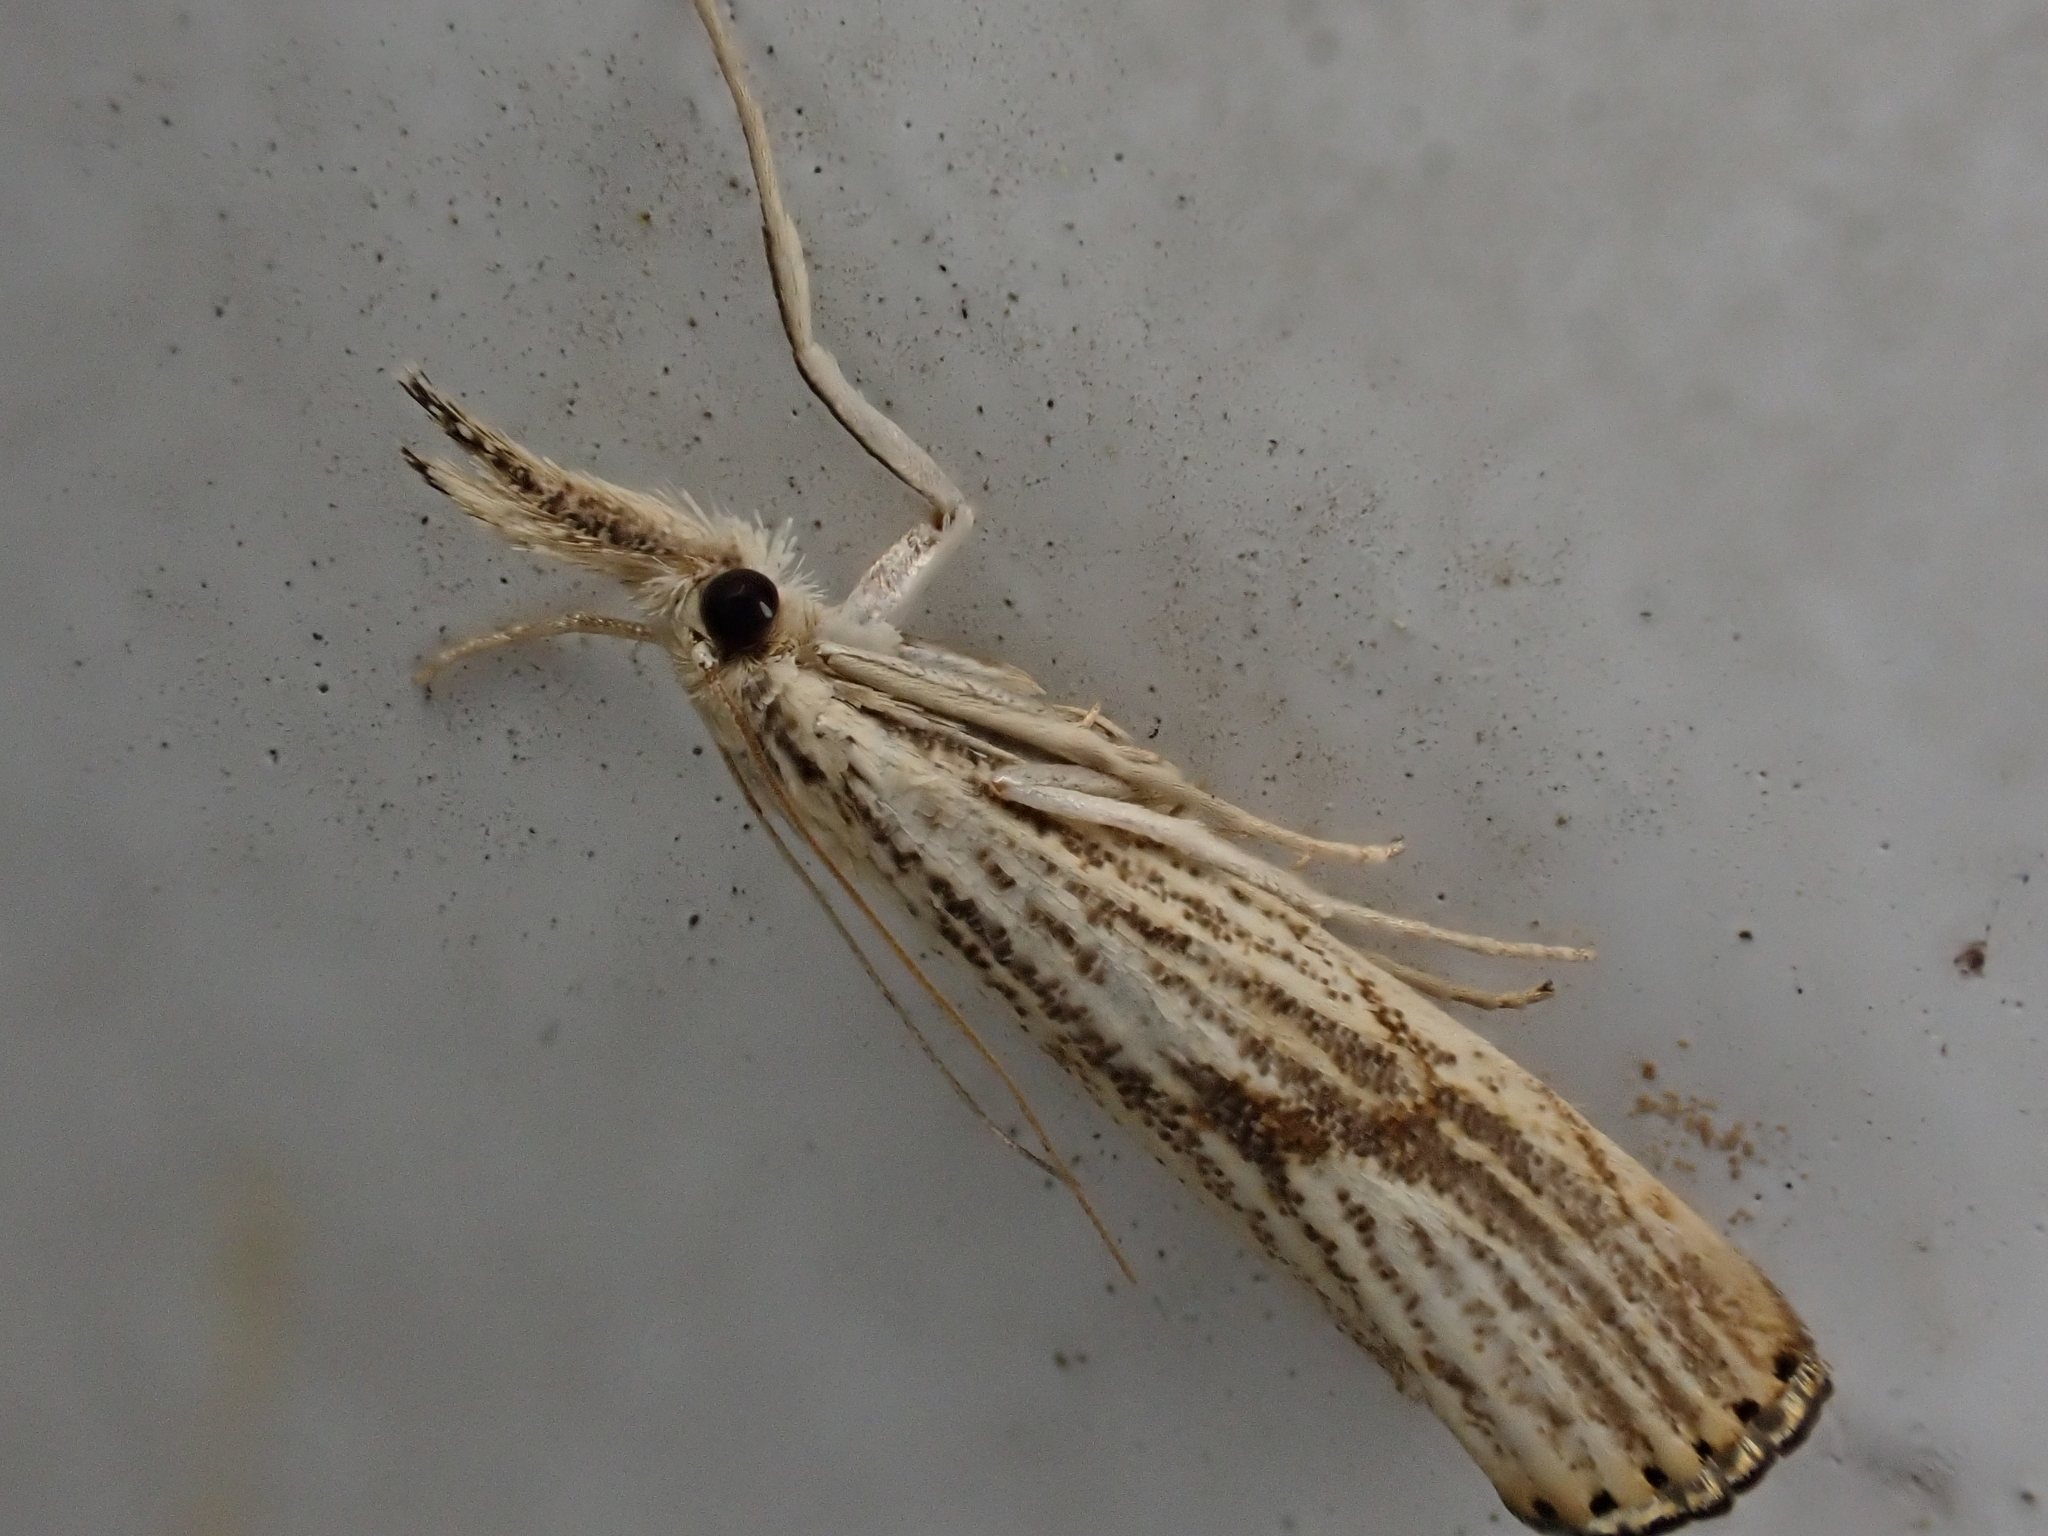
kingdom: Animalia
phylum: Arthropoda
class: Insecta
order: Lepidoptera
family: Crambidae
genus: Agriphila
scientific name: Agriphila ruricolellus
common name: Lesser vagabond sod webworm
